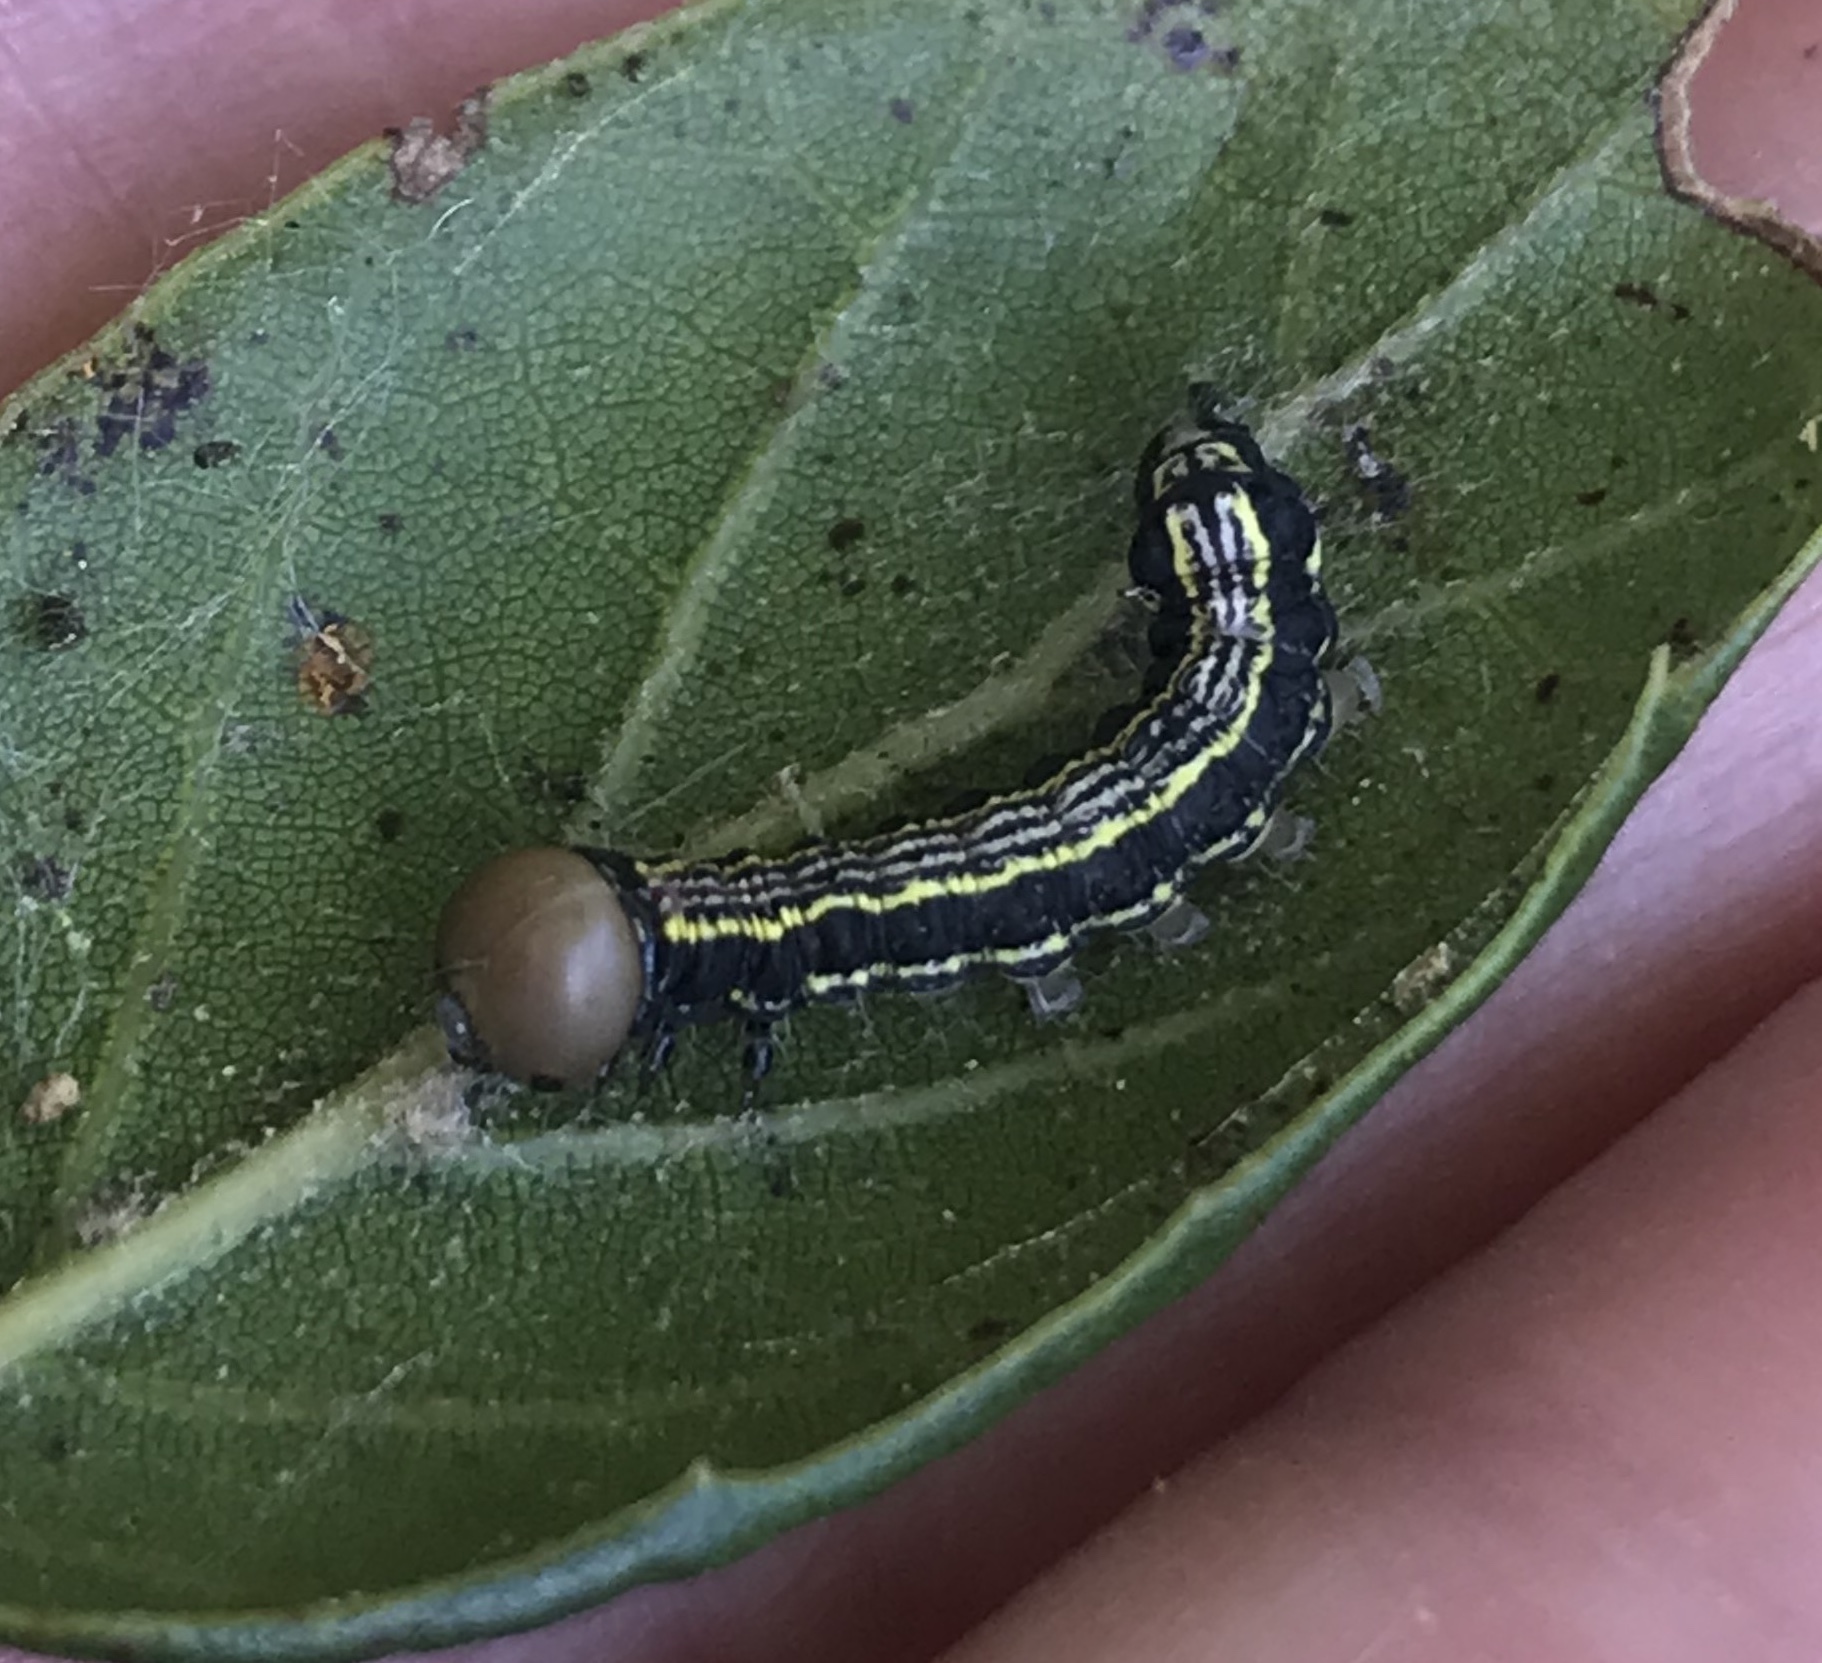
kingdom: Animalia
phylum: Arthropoda
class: Insecta
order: Lepidoptera
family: Notodontidae
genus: Phryganidia
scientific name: Phryganidia californica
